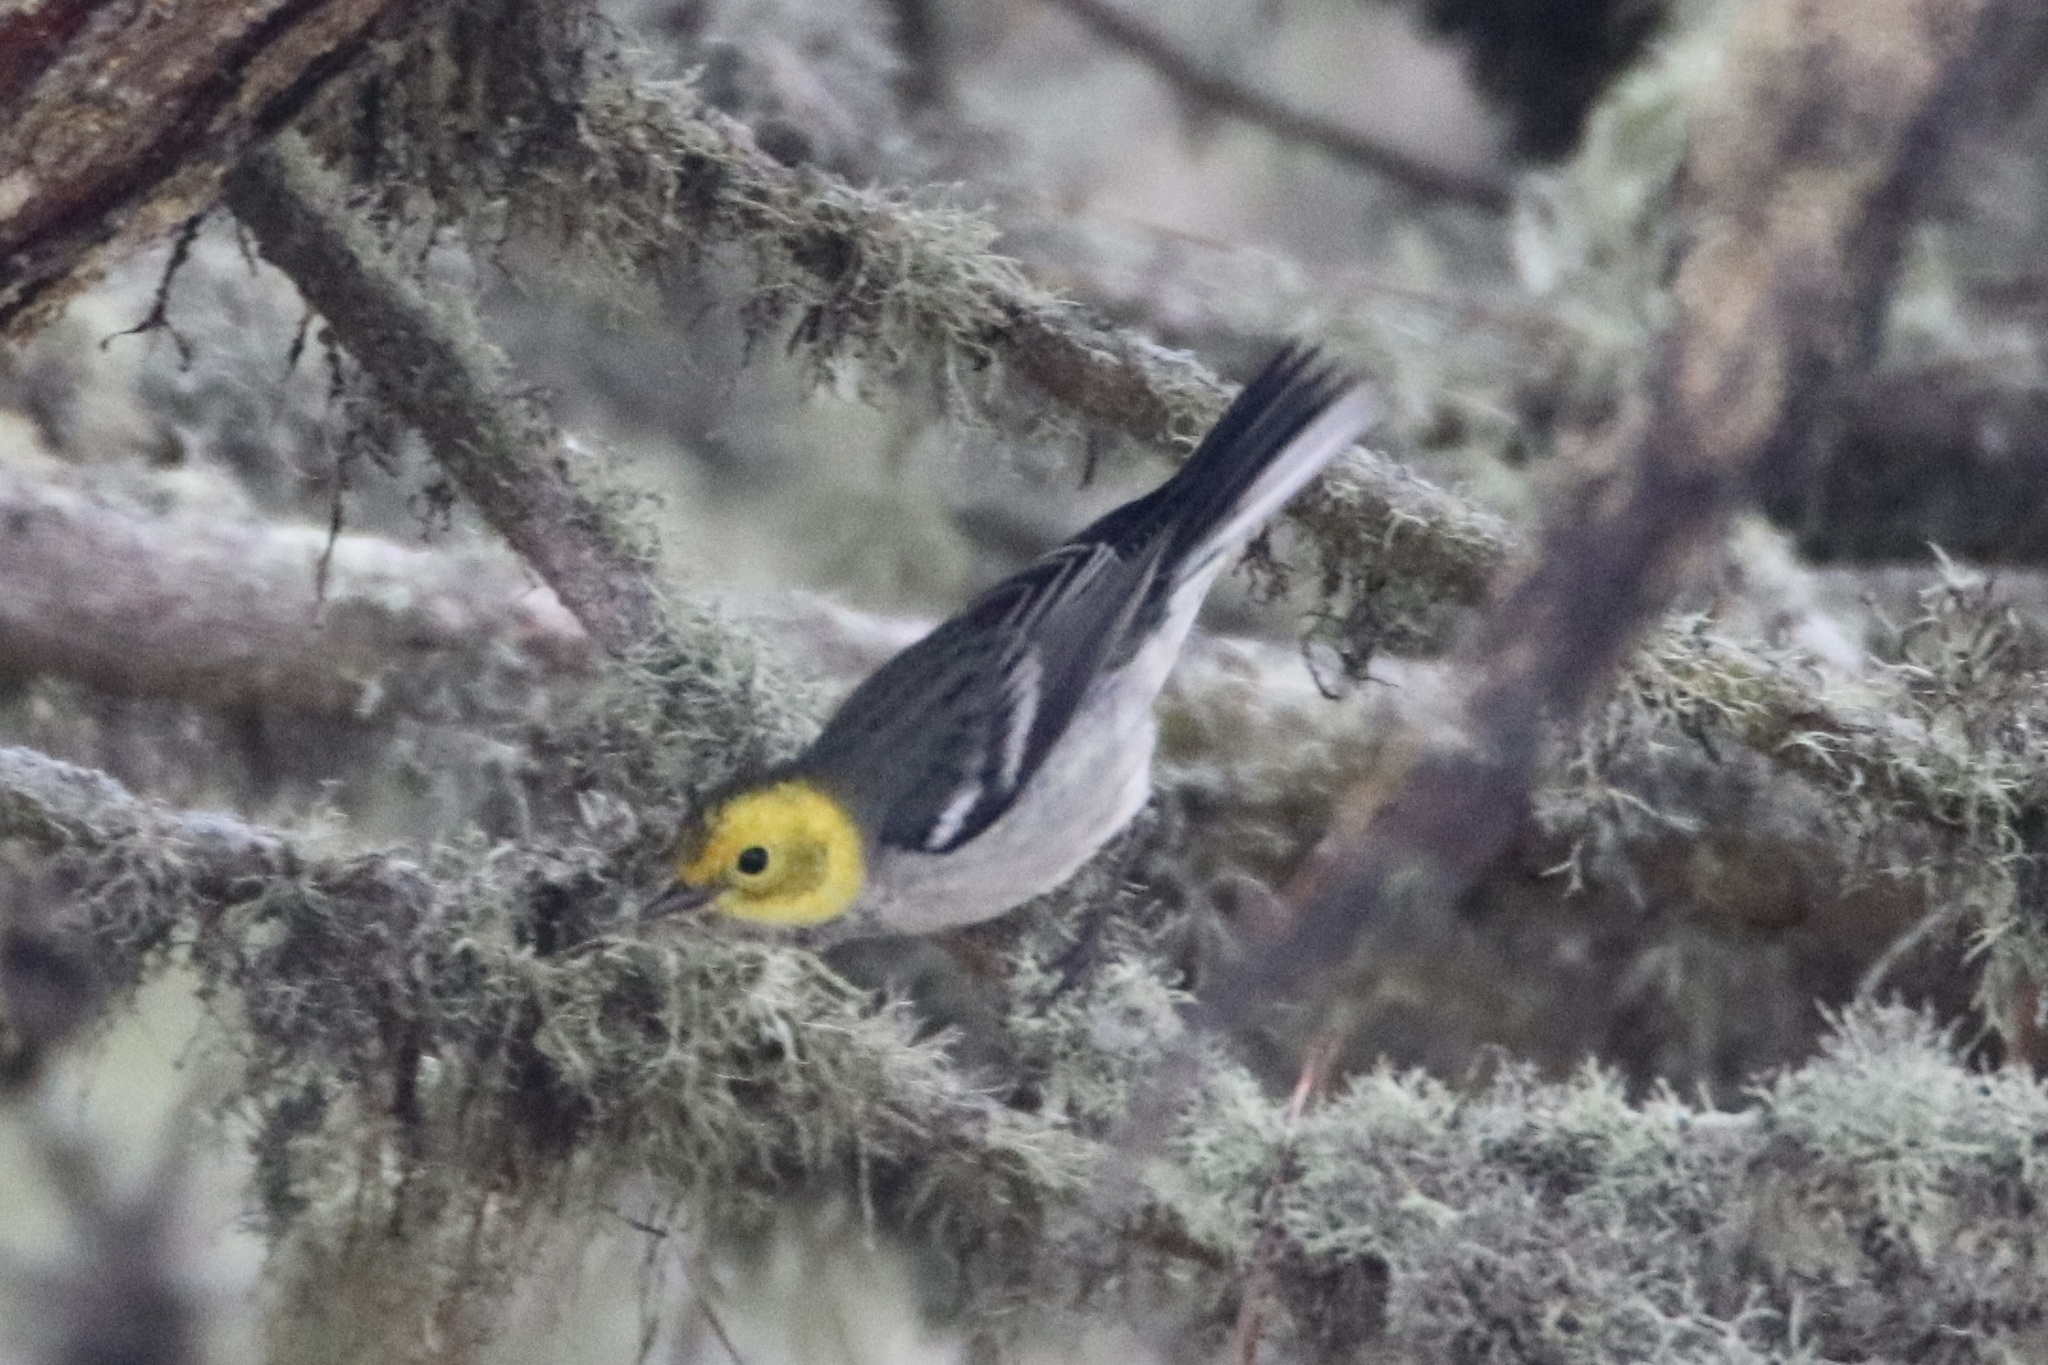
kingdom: Animalia
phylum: Chordata
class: Aves
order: Passeriformes
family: Parulidae
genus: Setophaga
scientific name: Setophaga occidentalis
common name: Hermit warbler
